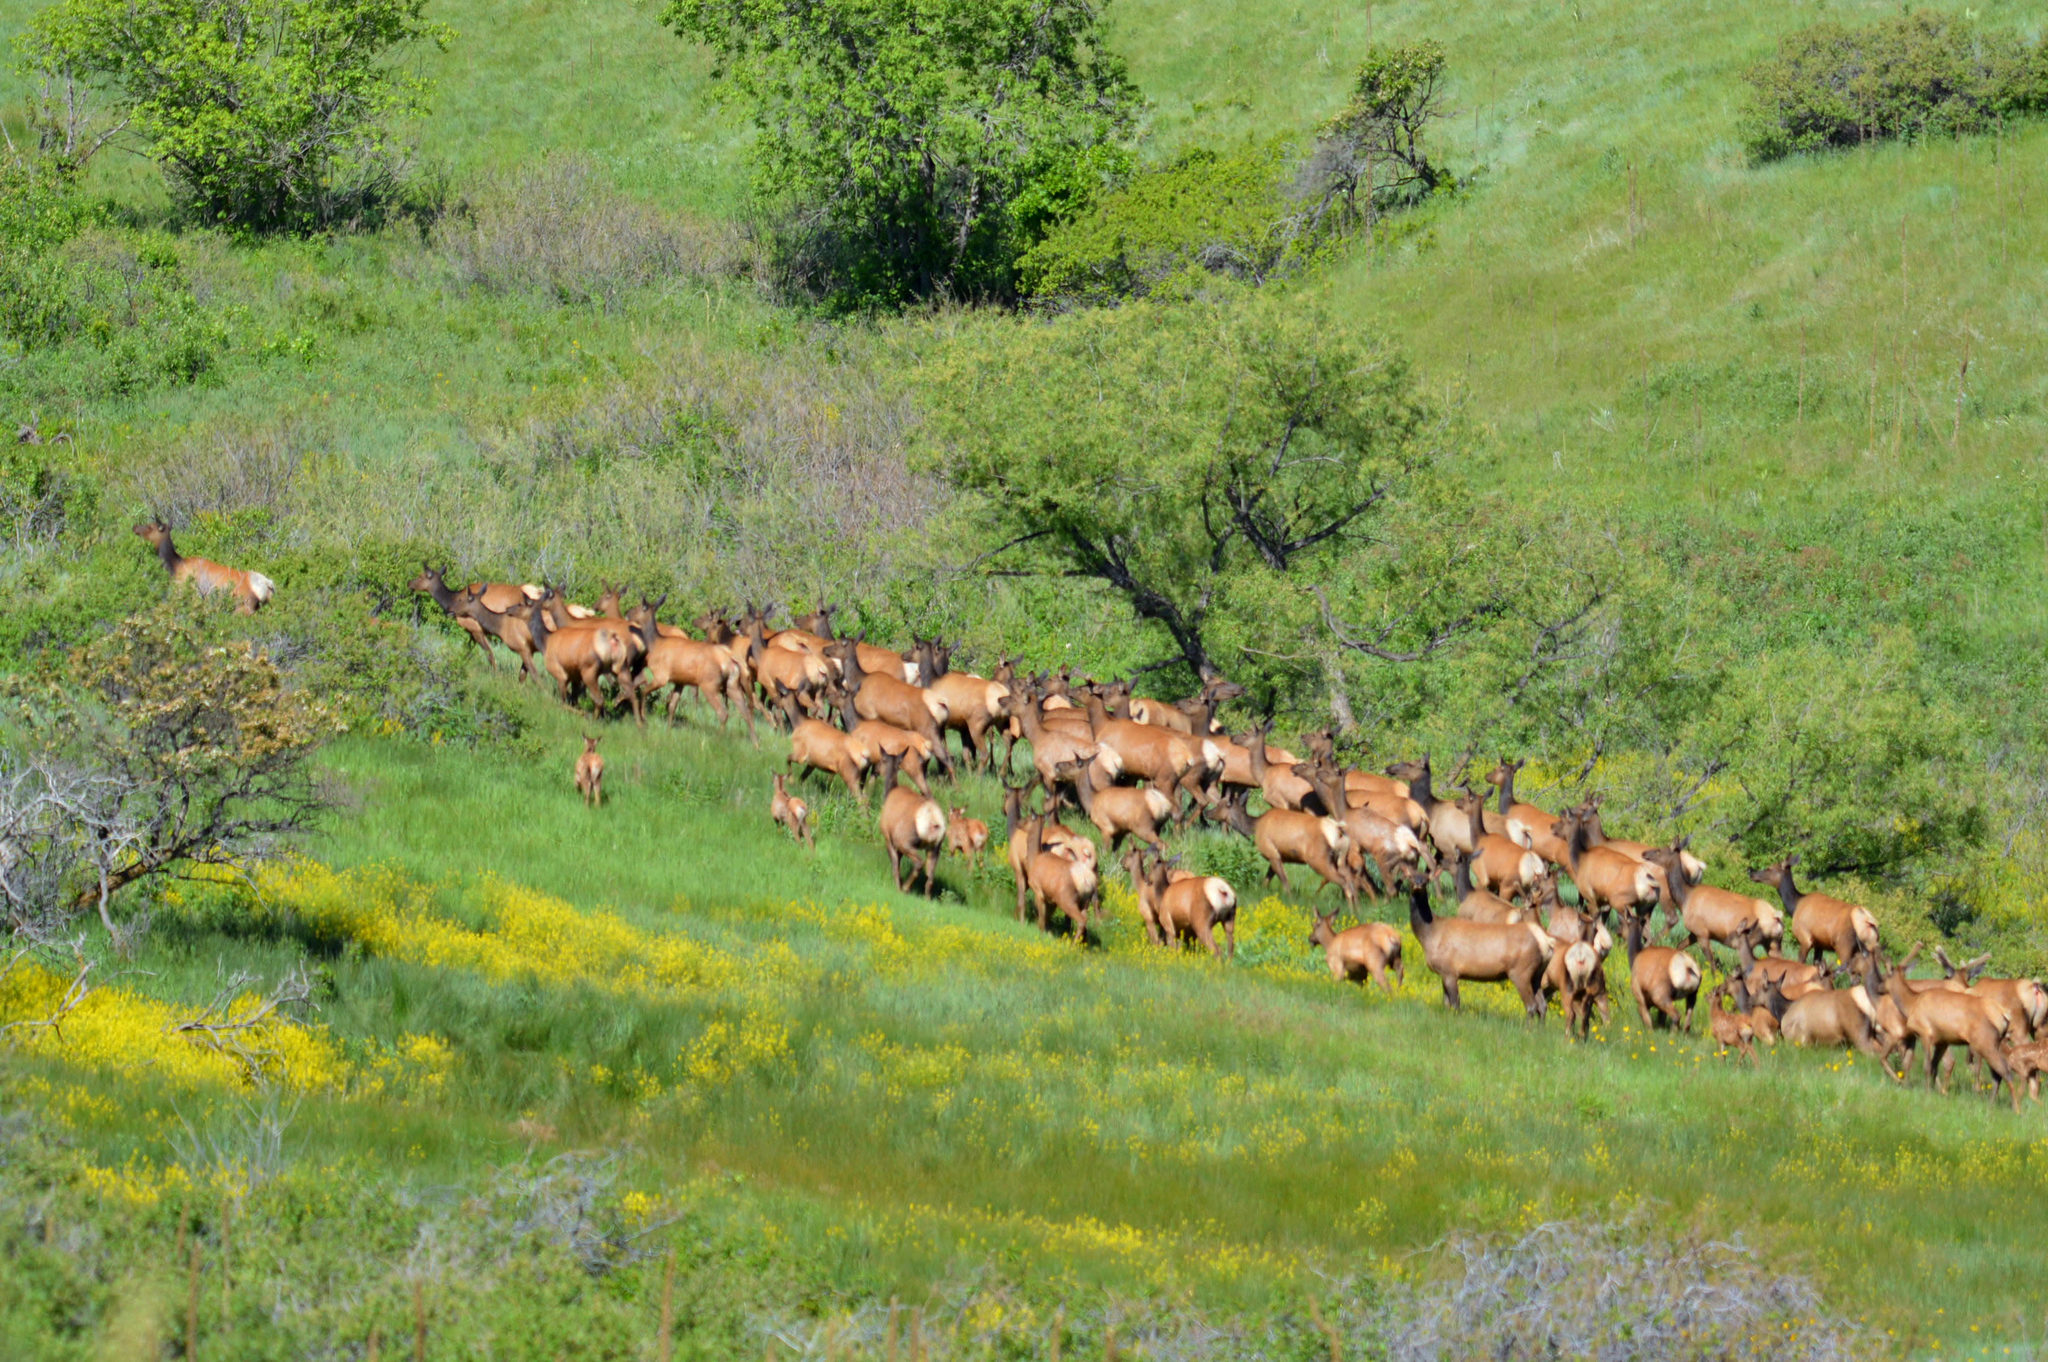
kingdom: Animalia
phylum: Chordata
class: Mammalia
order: Artiodactyla
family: Cervidae
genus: Cervus
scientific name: Cervus elaphus
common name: Red deer
